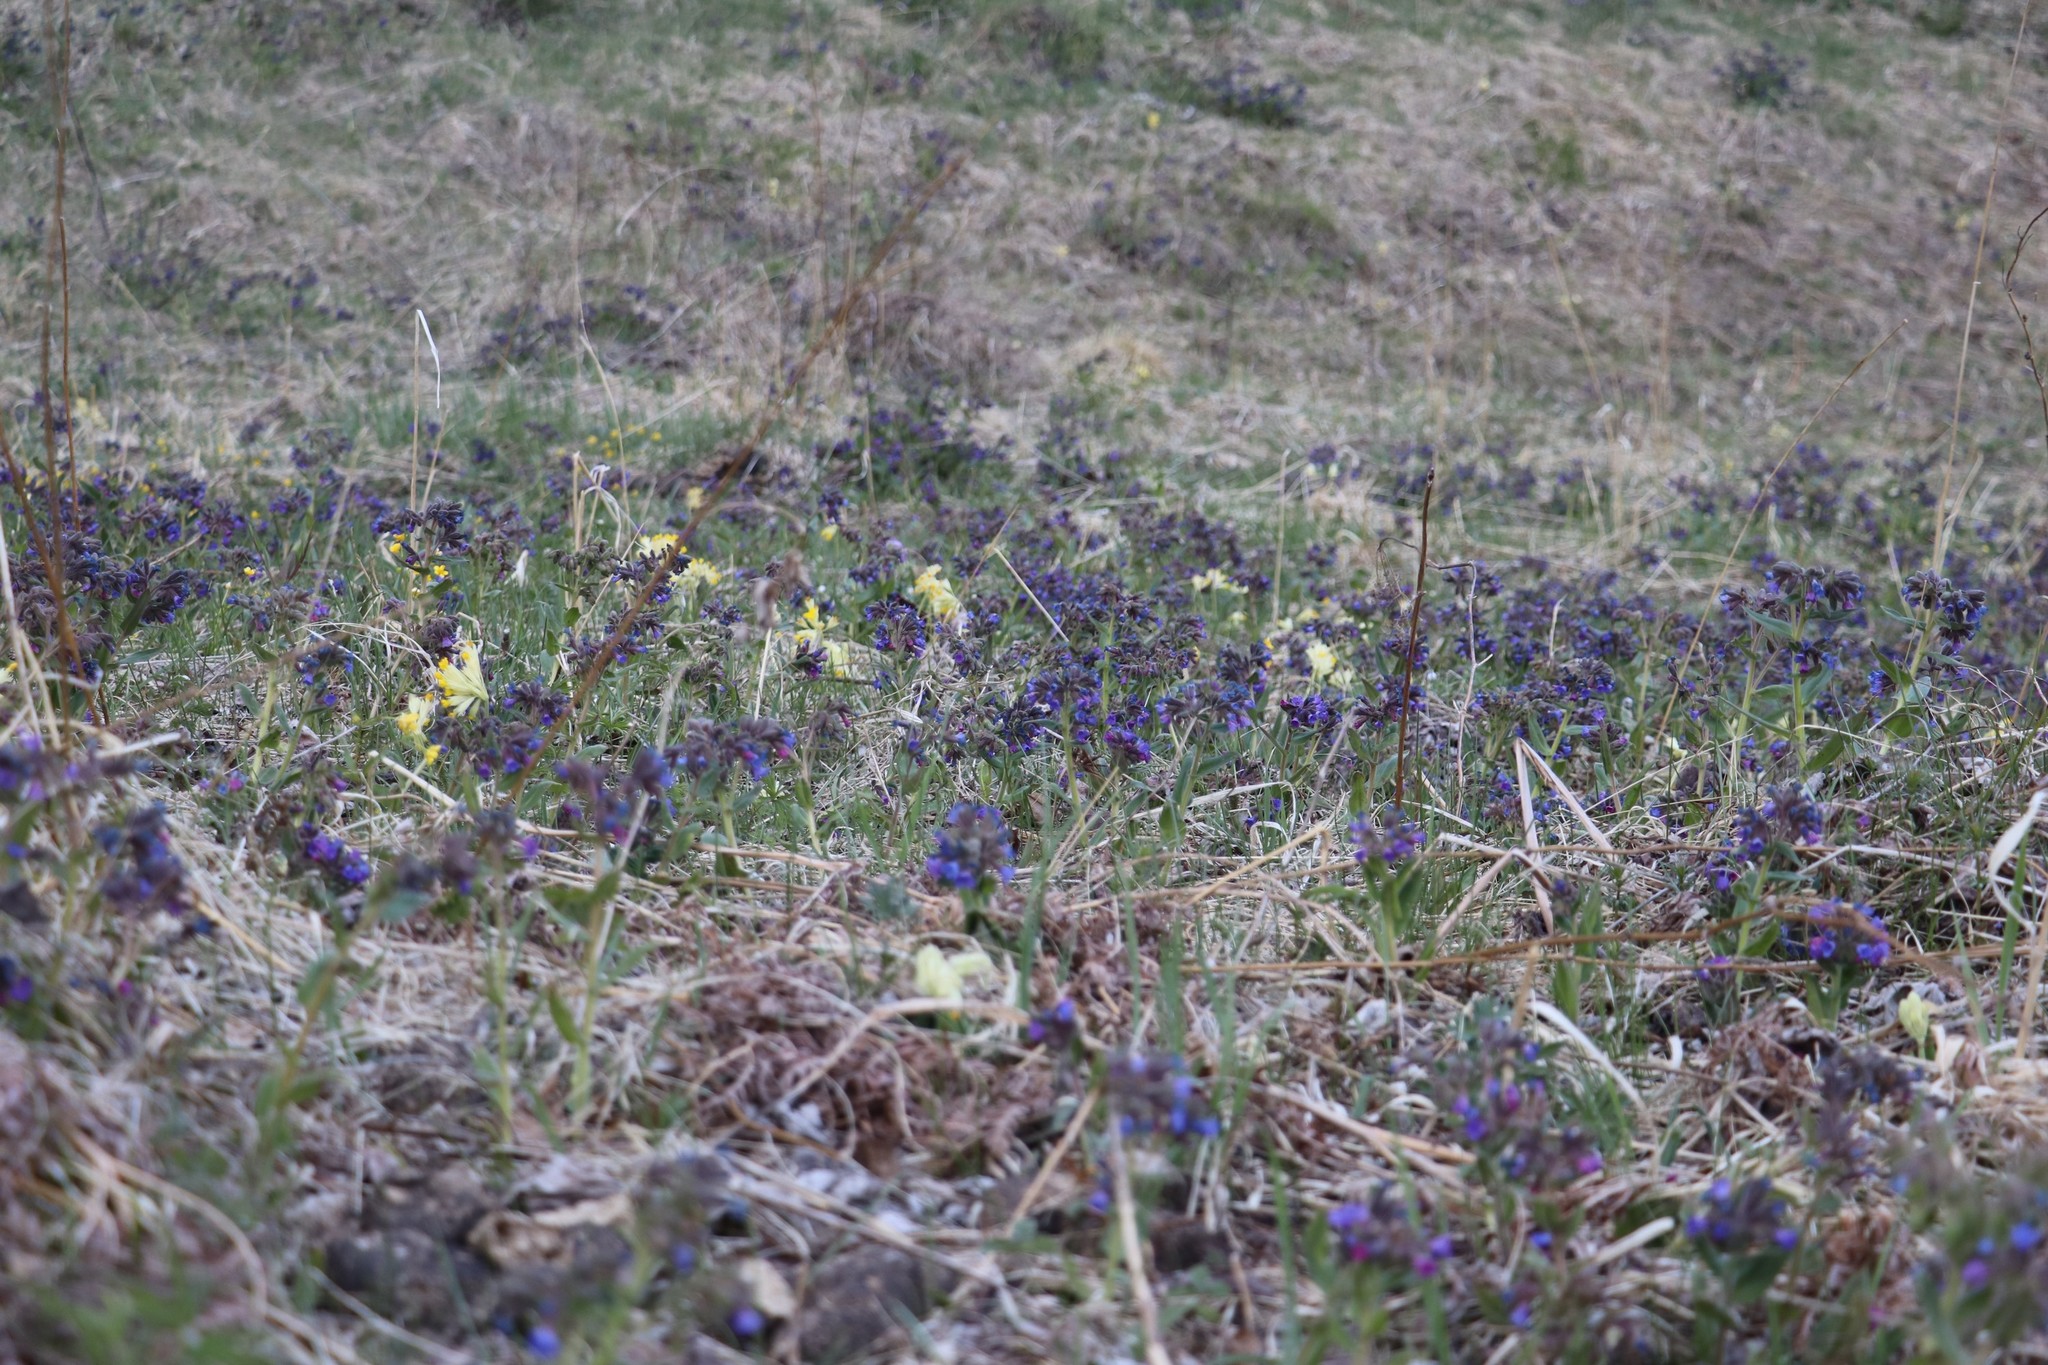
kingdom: Plantae
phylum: Tracheophyta
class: Magnoliopsida
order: Boraginales
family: Boraginaceae
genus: Pulmonaria
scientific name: Pulmonaria mollis
